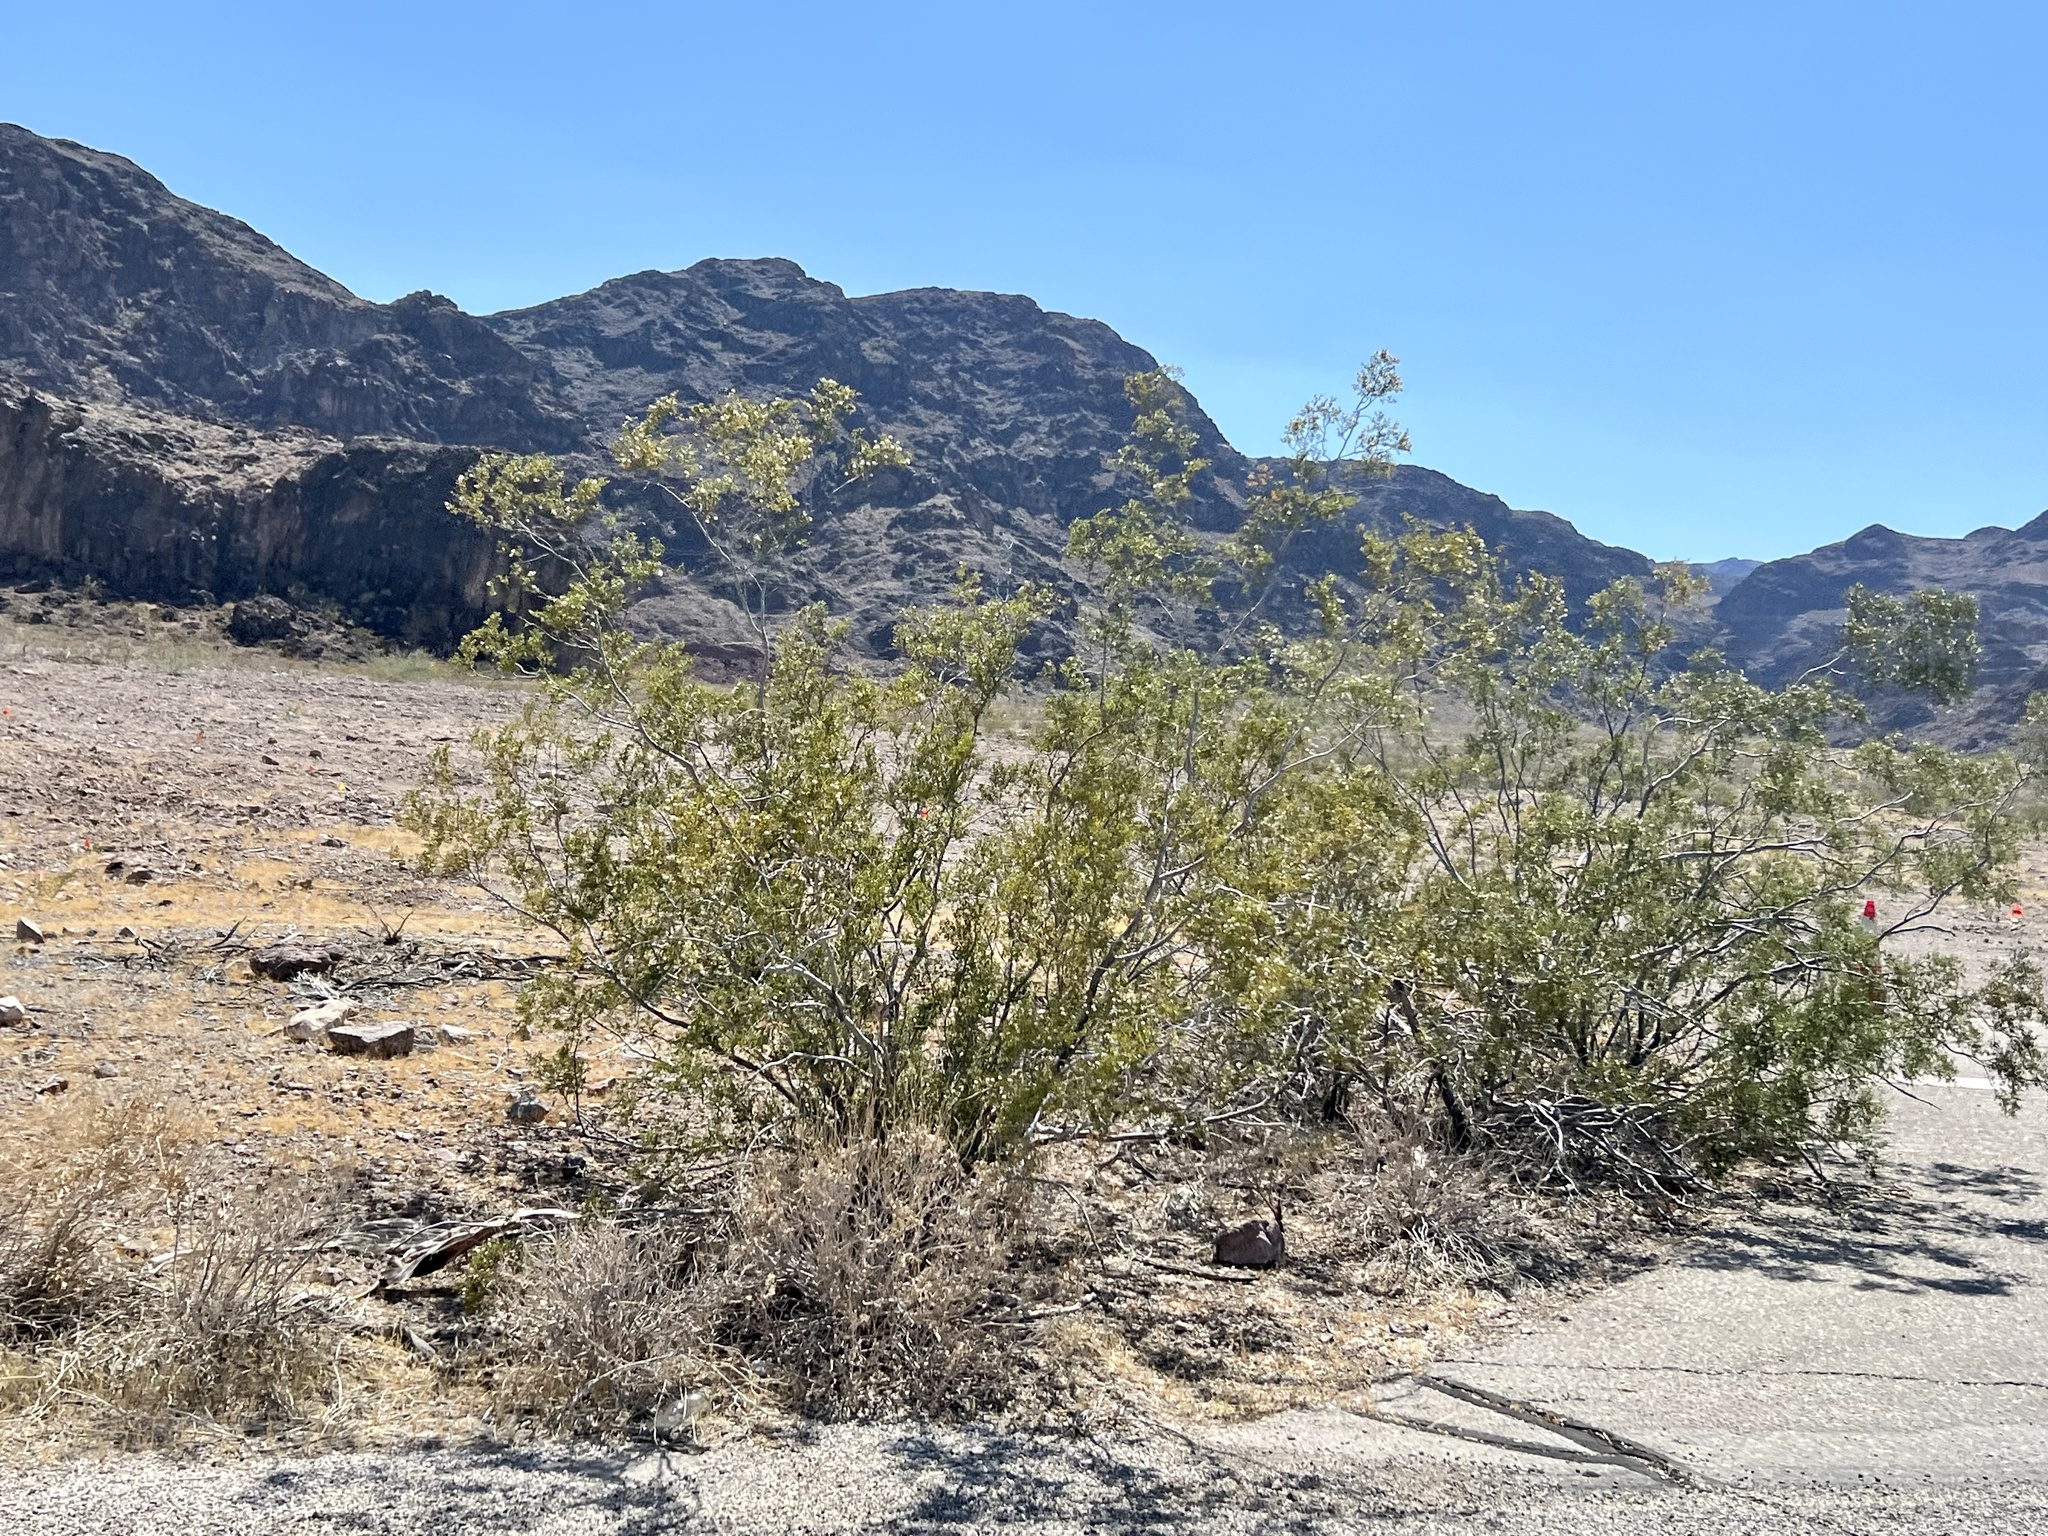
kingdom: Plantae
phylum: Tracheophyta
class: Magnoliopsida
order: Zygophyllales
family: Zygophyllaceae
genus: Larrea
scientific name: Larrea tridentata
